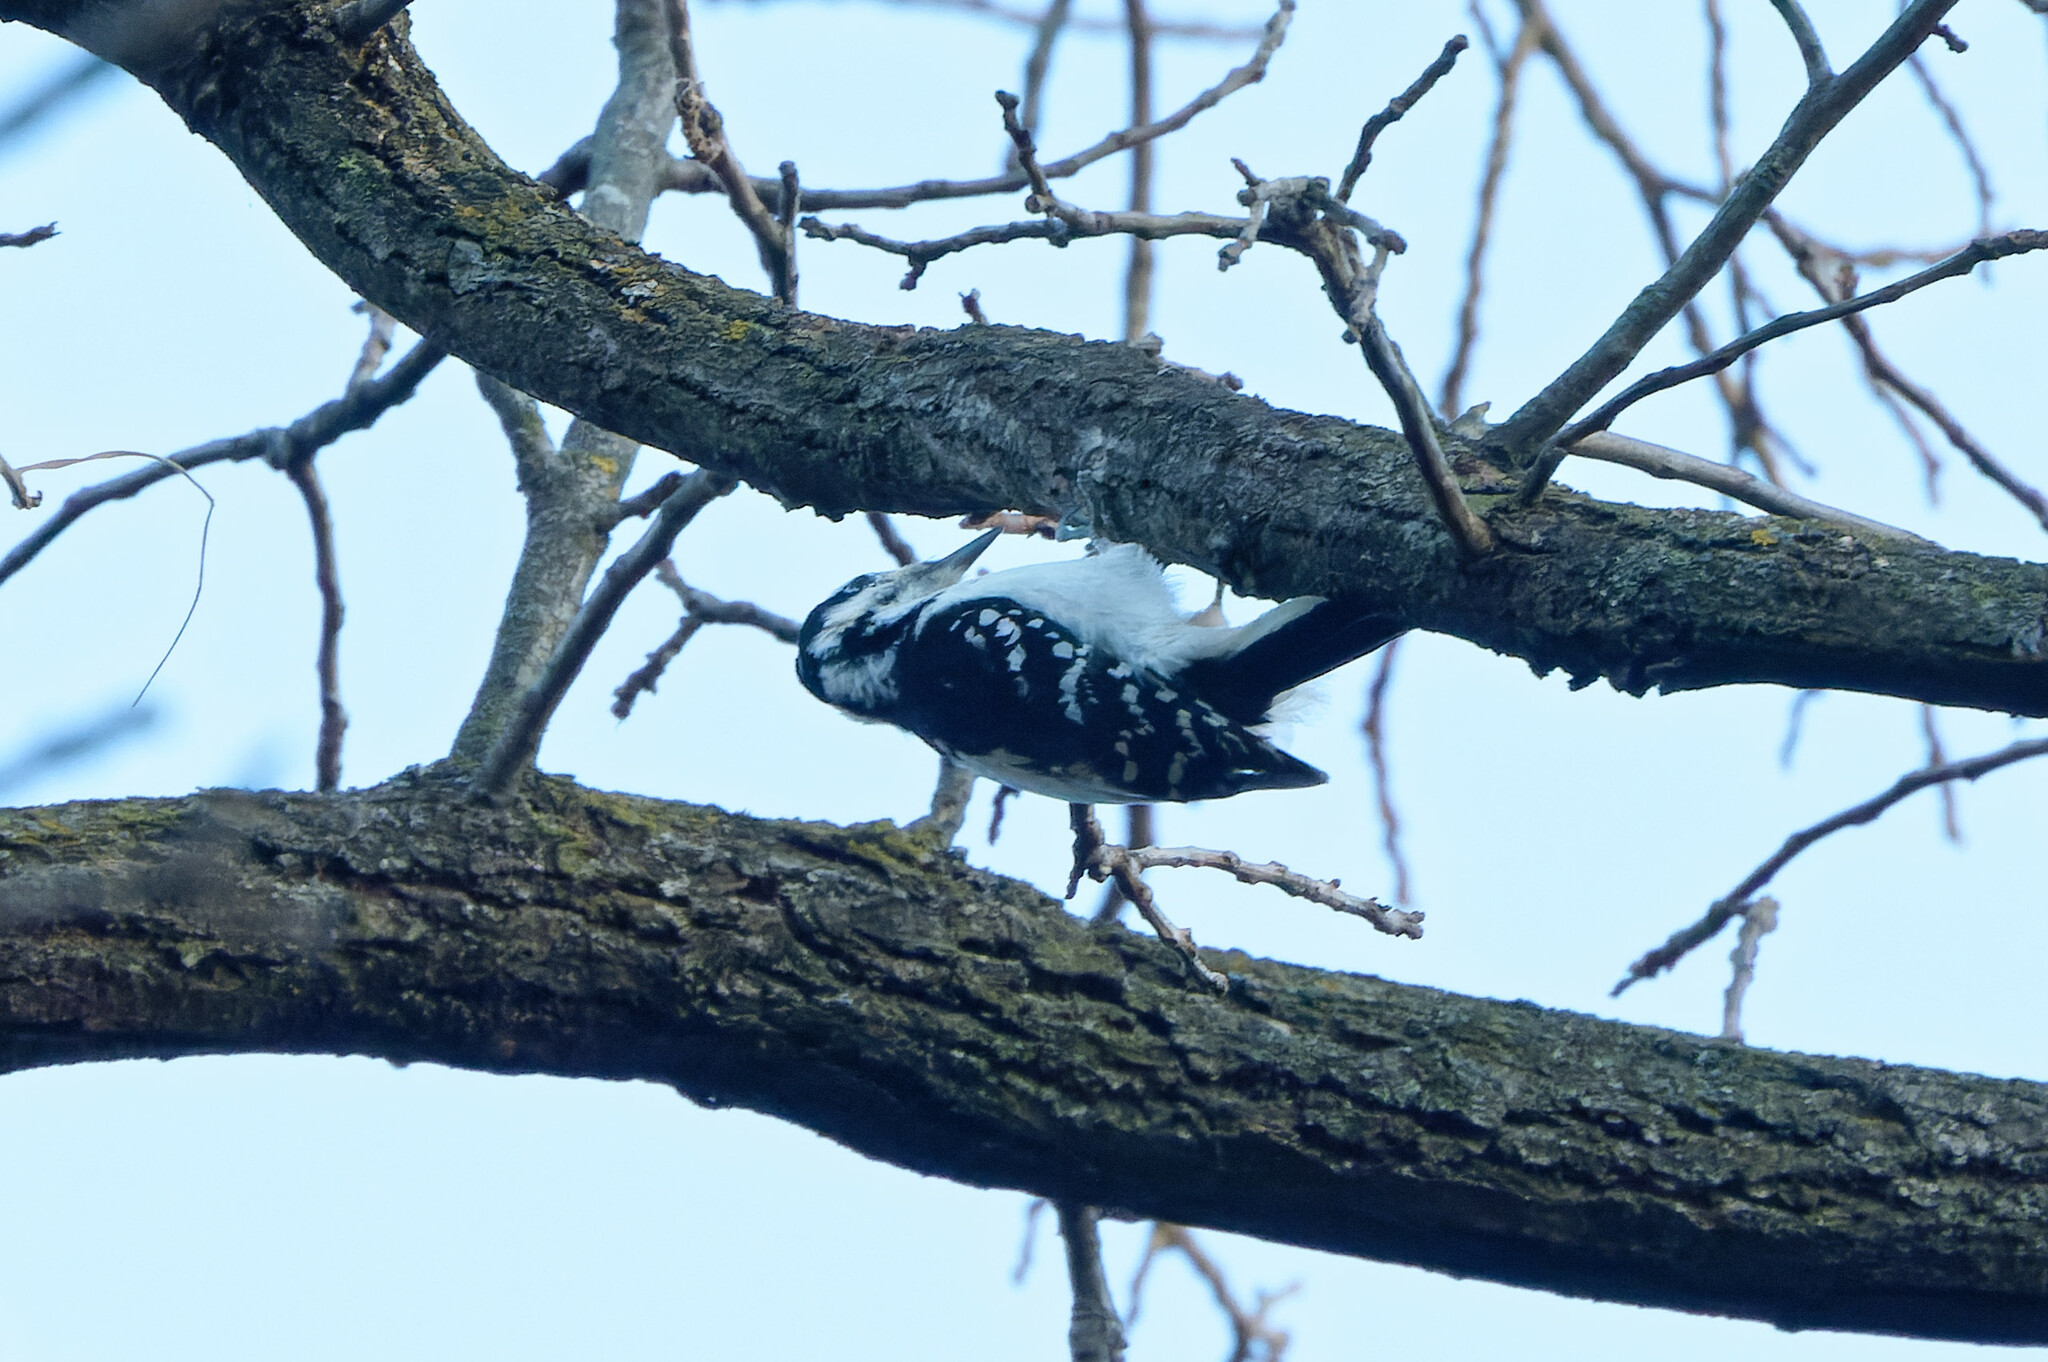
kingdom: Animalia
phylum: Chordata
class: Aves
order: Piciformes
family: Picidae
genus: Leuconotopicus
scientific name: Leuconotopicus villosus
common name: Hairy woodpecker
